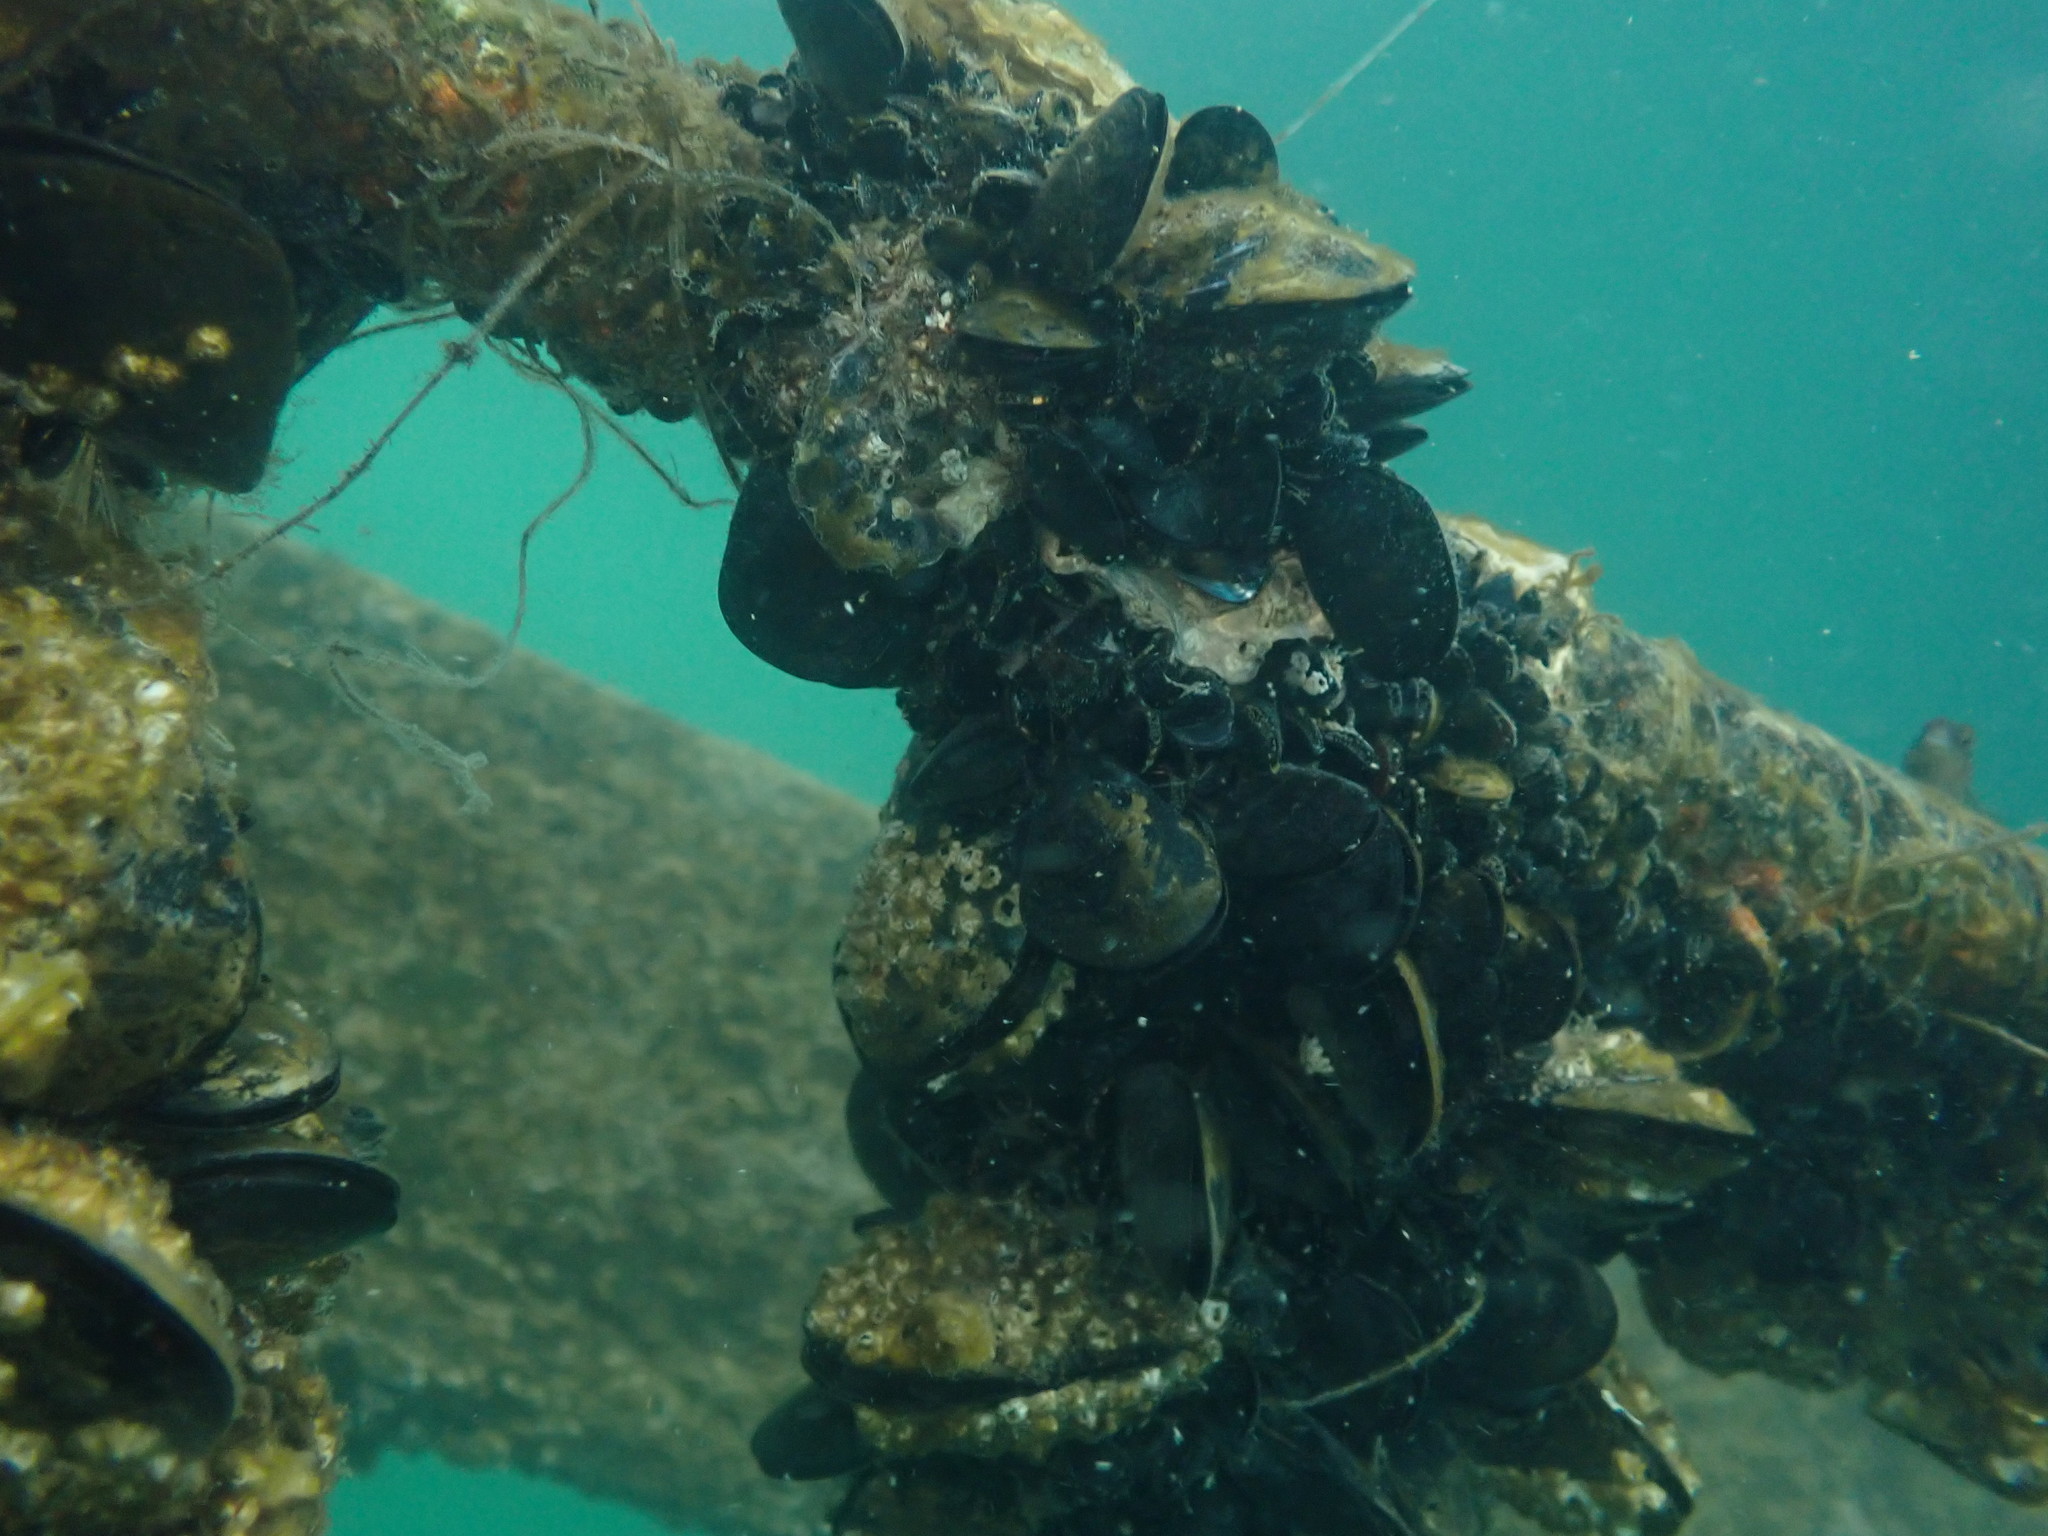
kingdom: Animalia
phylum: Mollusca
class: Bivalvia
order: Mytilida
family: Mytilidae
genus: Mytilus
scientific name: Mytilus planulatus
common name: Australian mussel
